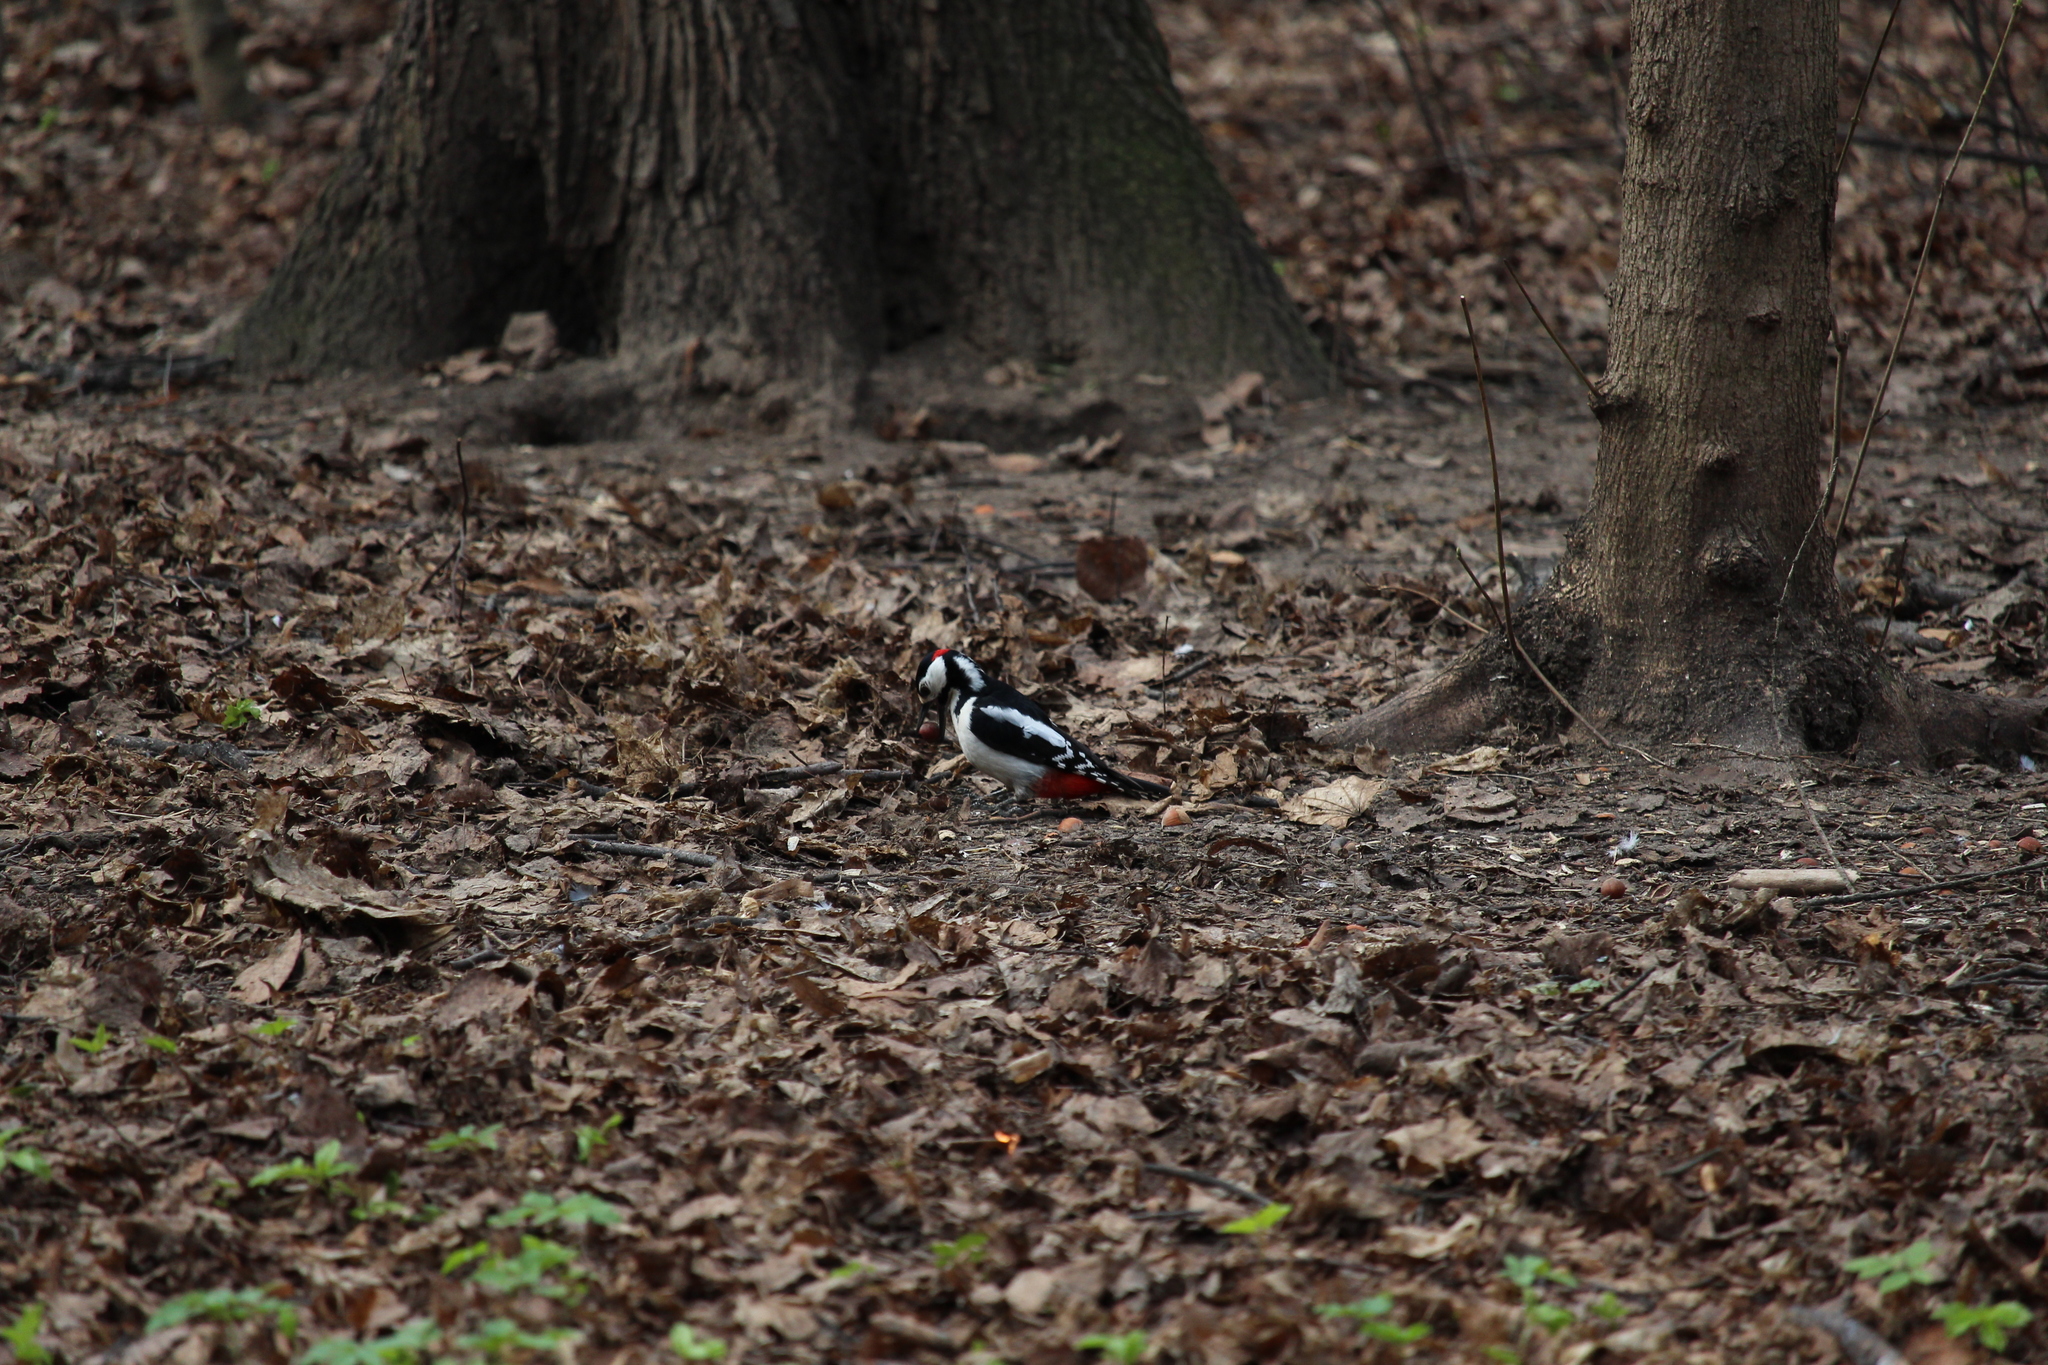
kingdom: Animalia
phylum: Chordata
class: Aves
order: Piciformes
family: Picidae
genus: Dendrocopos
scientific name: Dendrocopos major
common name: Great spotted woodpecker
